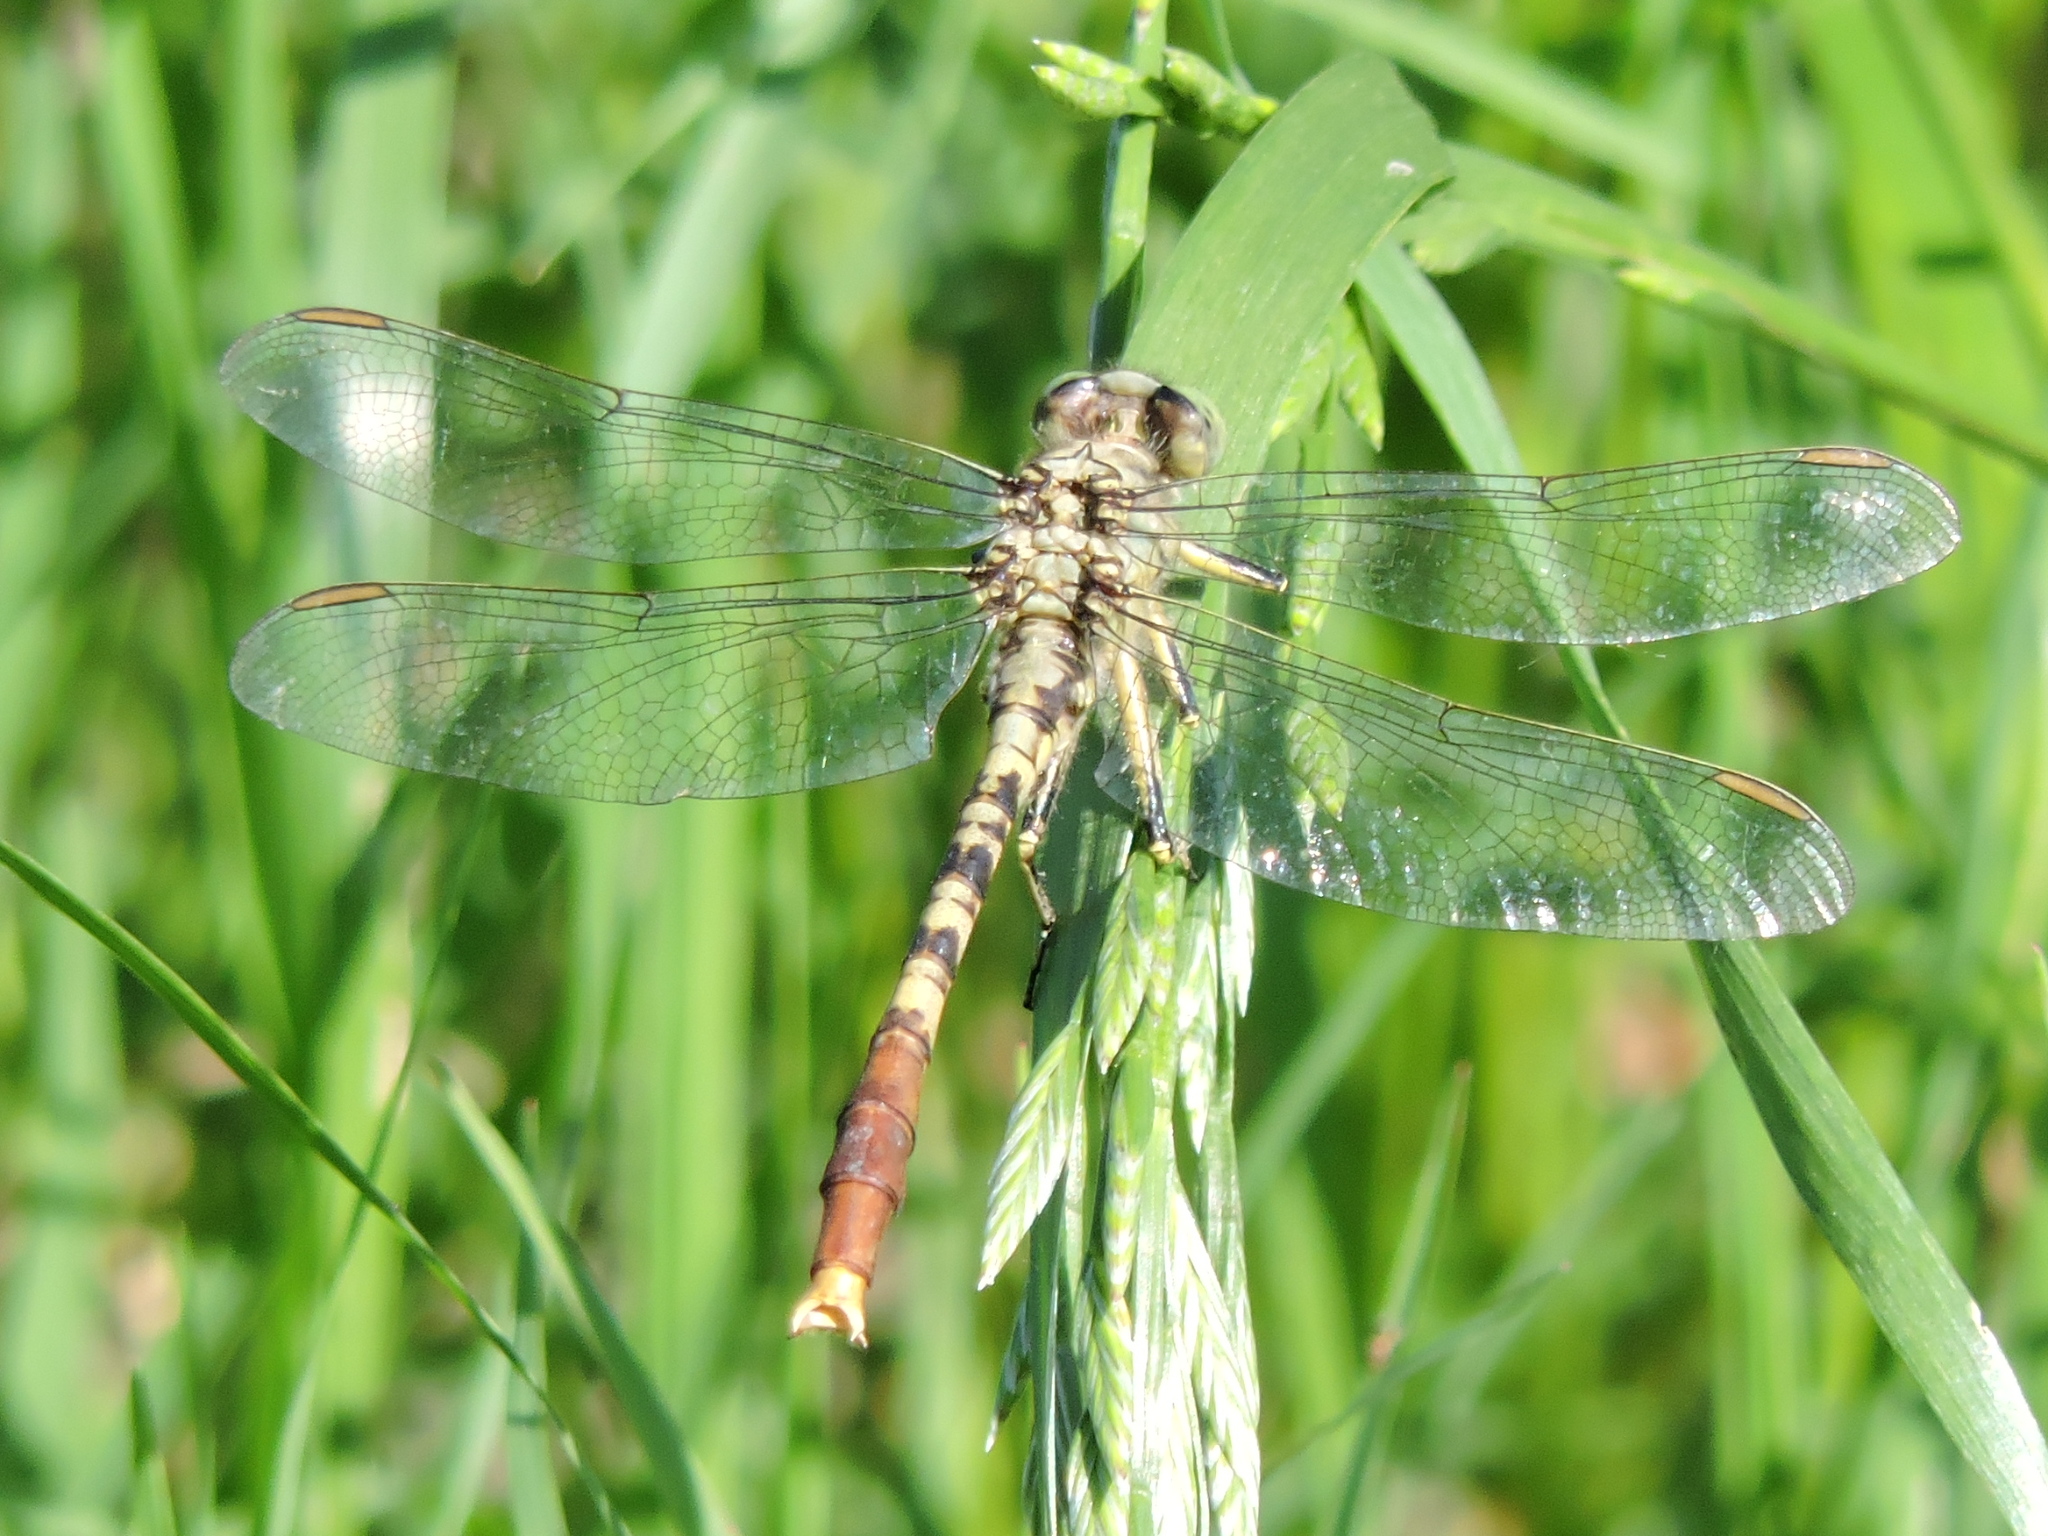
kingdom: Animalia
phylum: Arthropoda
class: Insecta
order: Odonata
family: Gomphidae
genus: Arigomphus
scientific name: Arigomphus submedianus
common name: Jade clubtail
